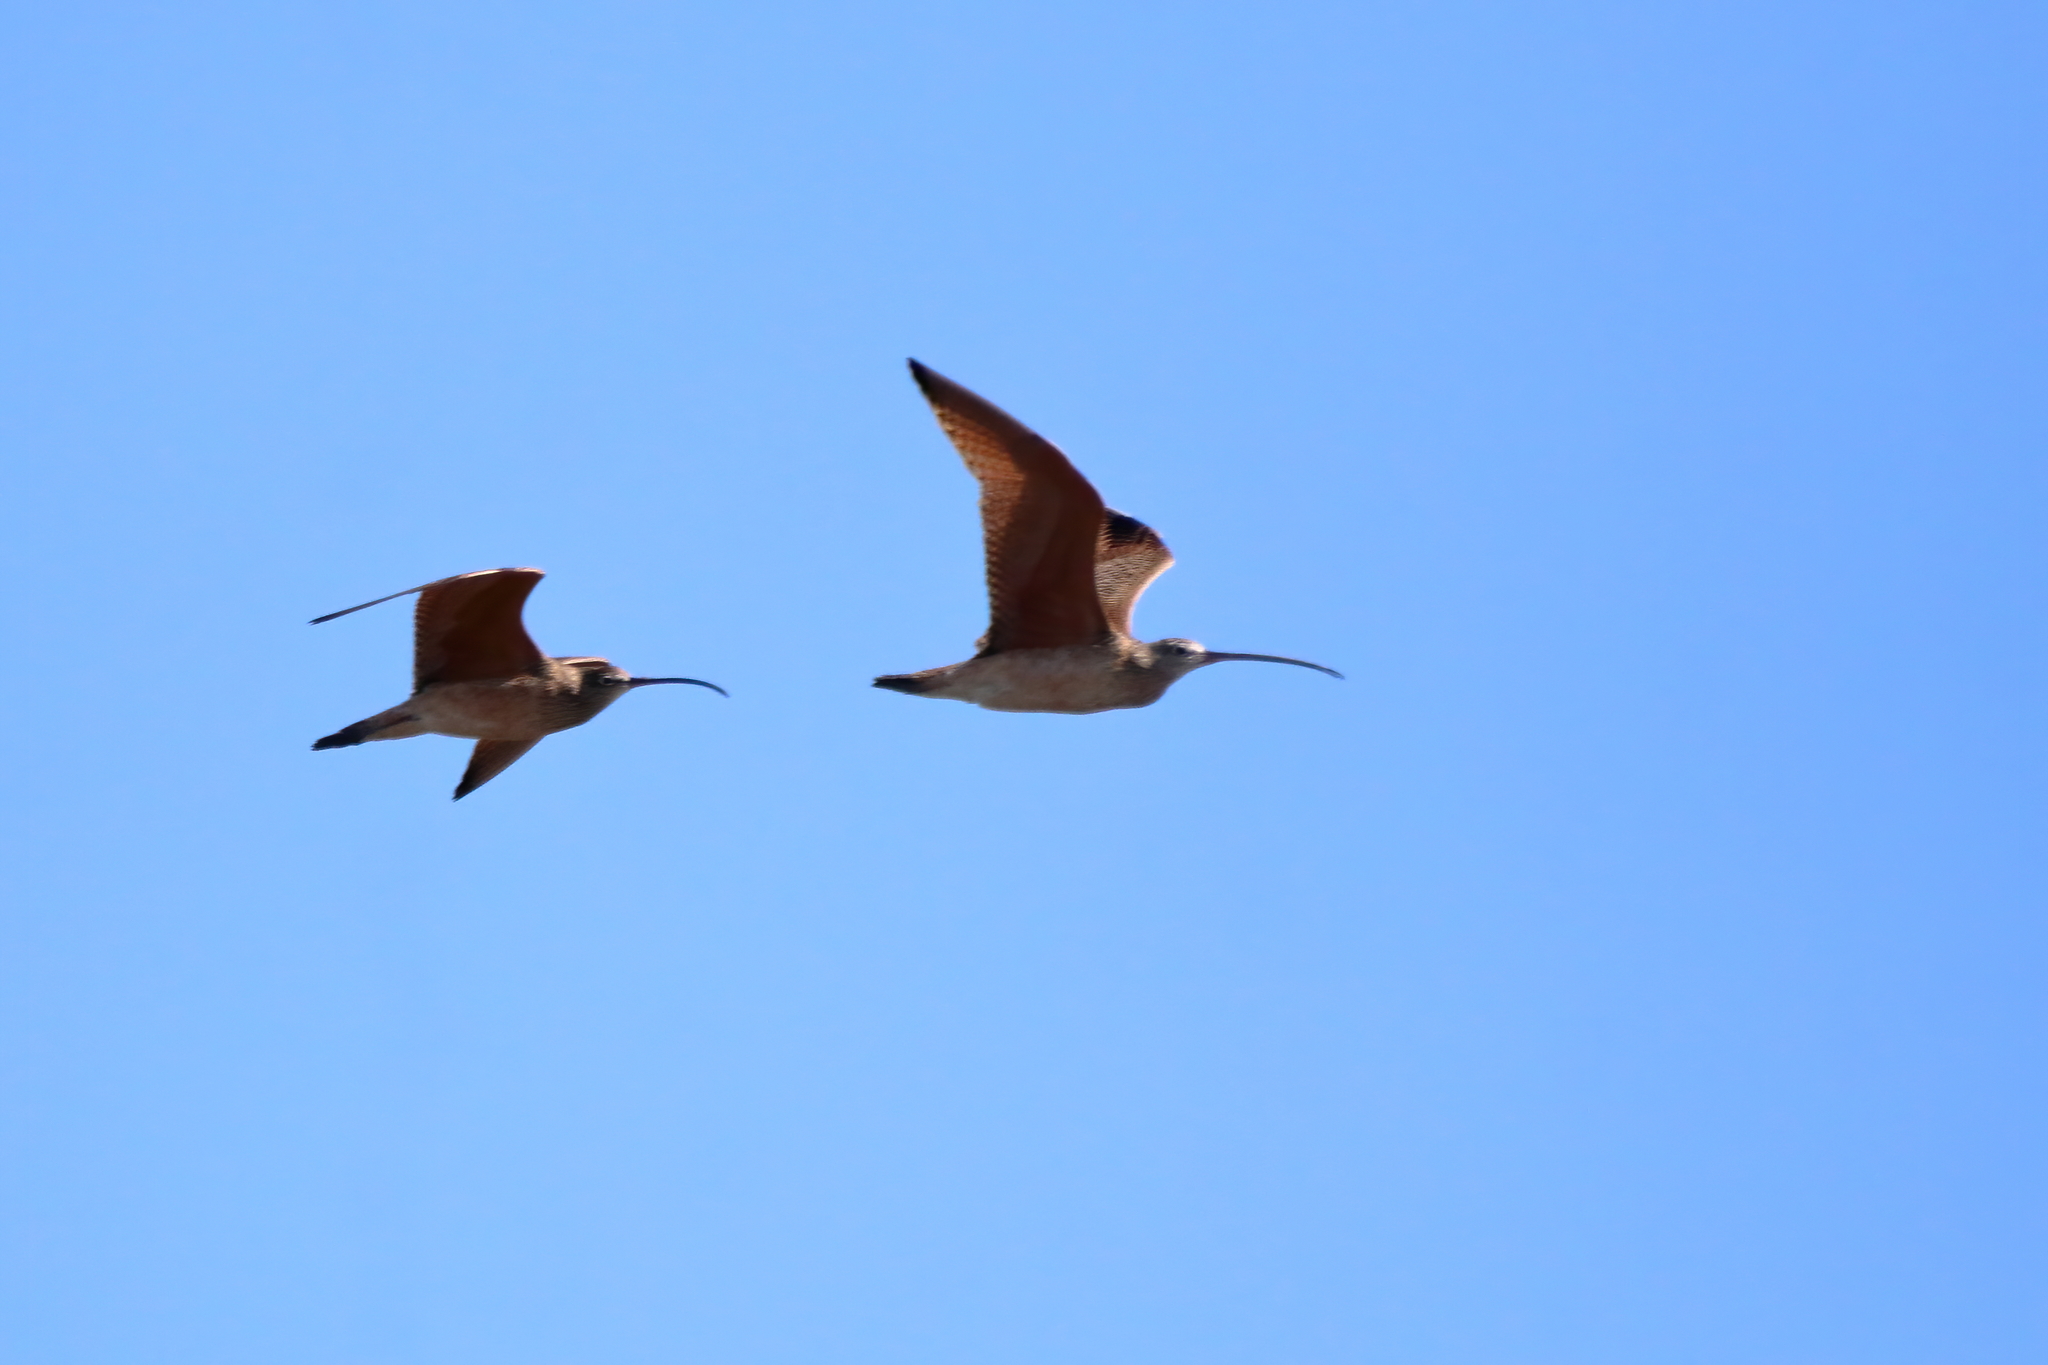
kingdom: Animalia
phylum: Chordata
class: Aves
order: Charadriiformes
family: Scolopacidae
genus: Numenius
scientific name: Numenius americanus
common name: Long-billed curlew
